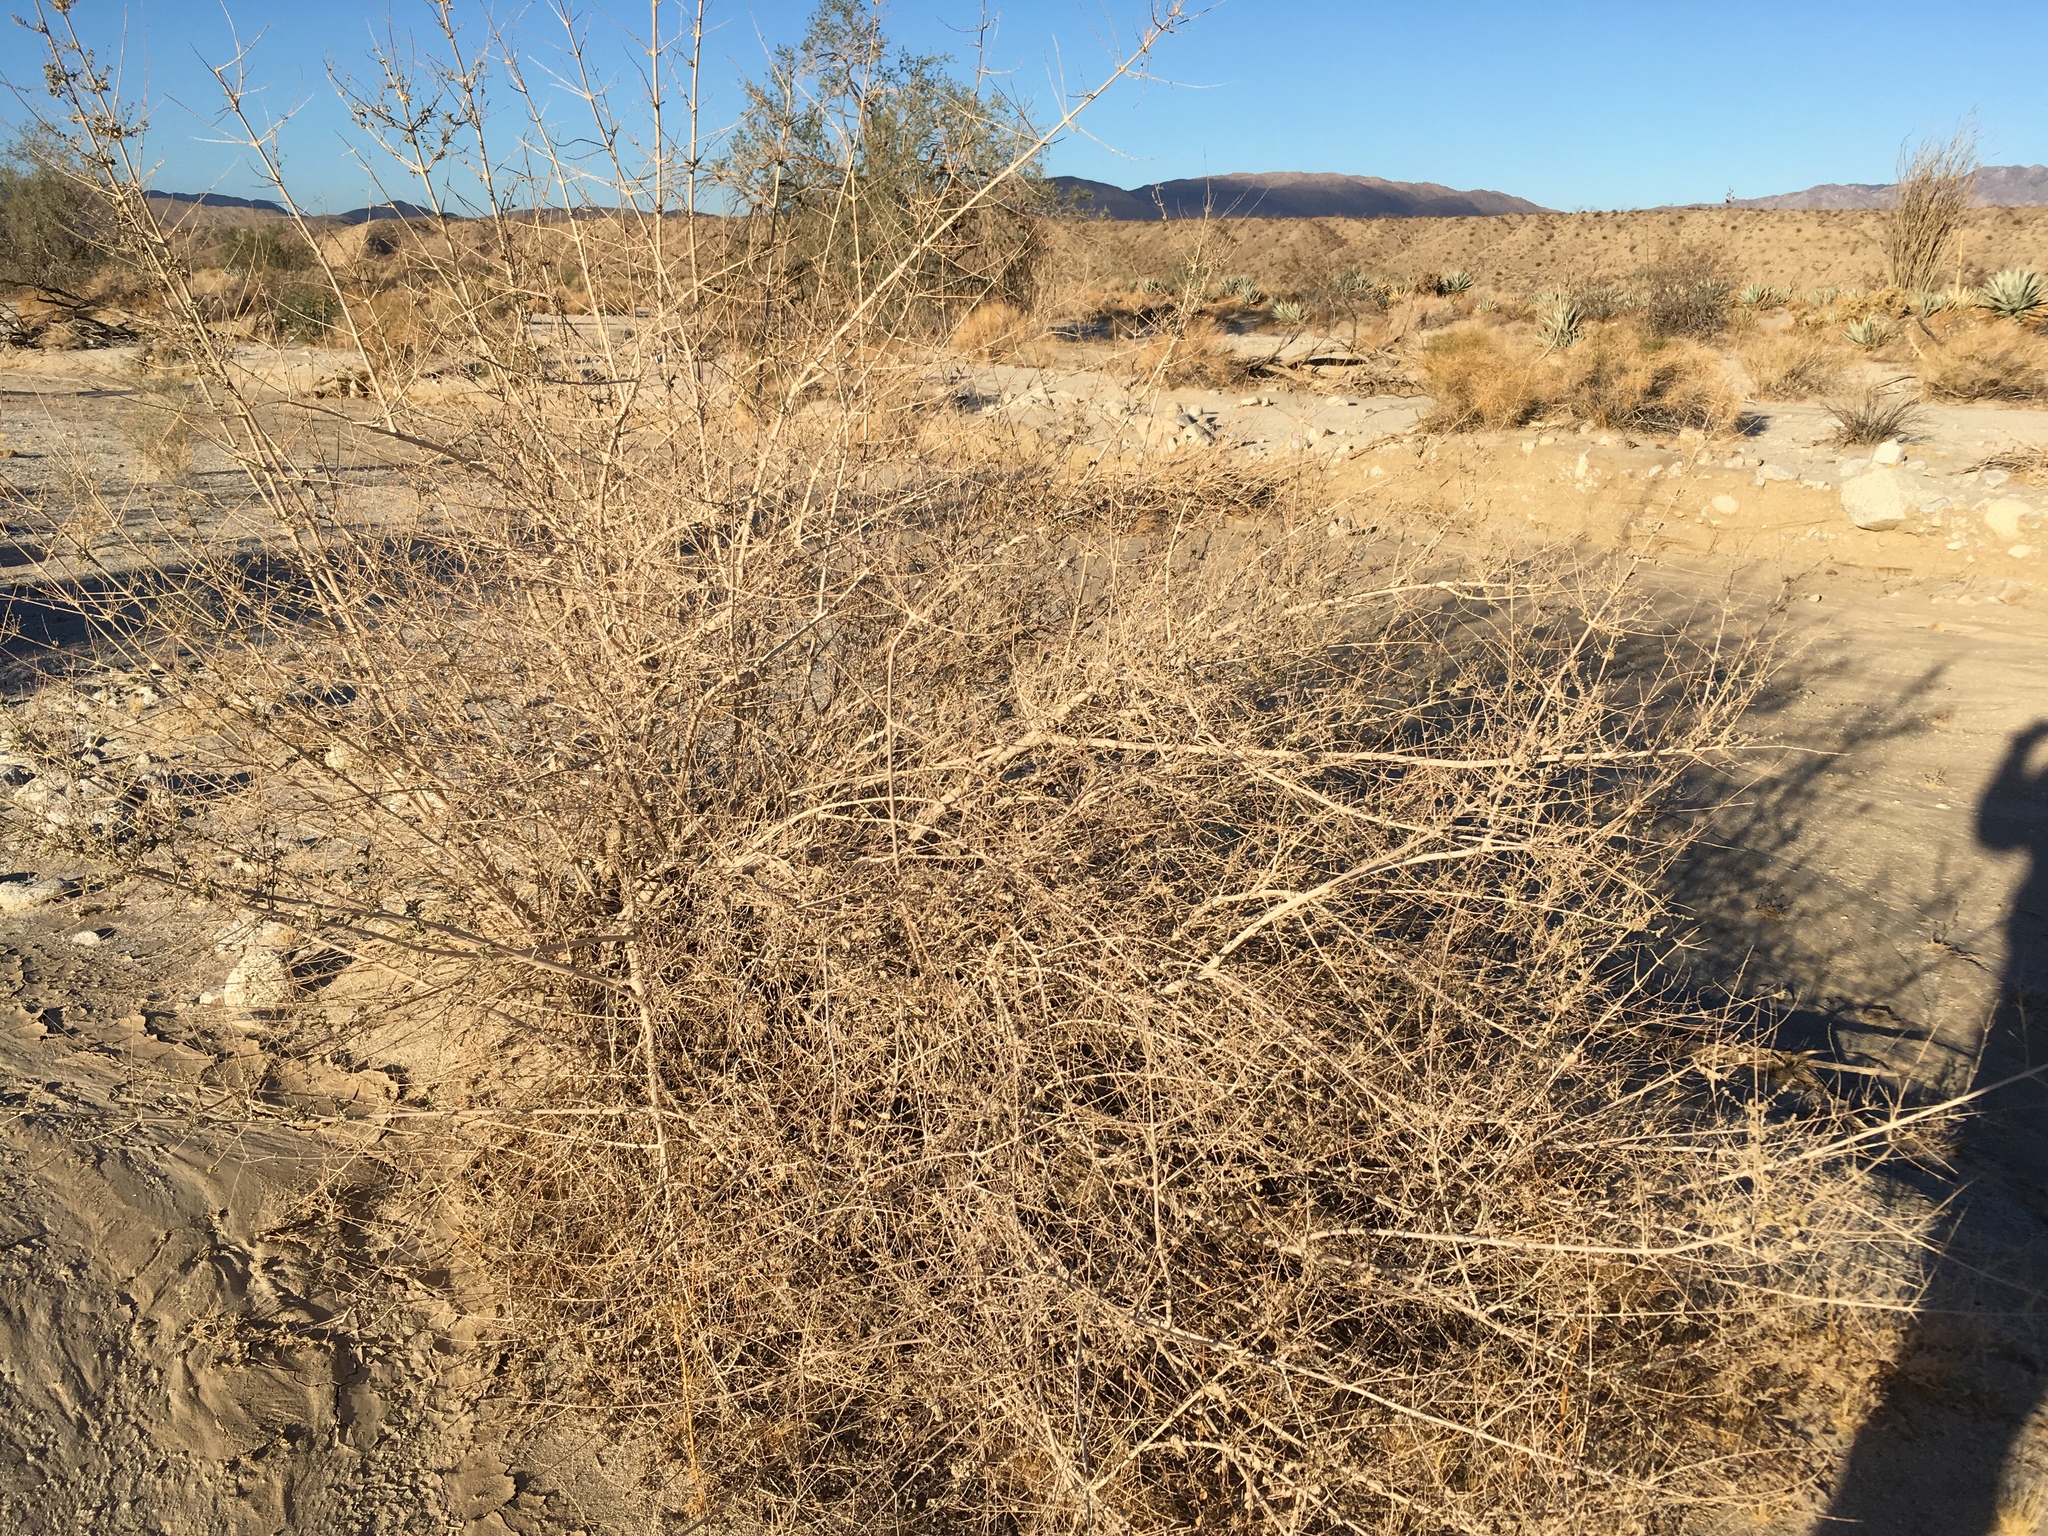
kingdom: Plantae
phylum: Tracheophyta
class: Magnoliopsida
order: Lamiales
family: Lamiaceae
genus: Condea
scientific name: Condea emoryi
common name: Chia
